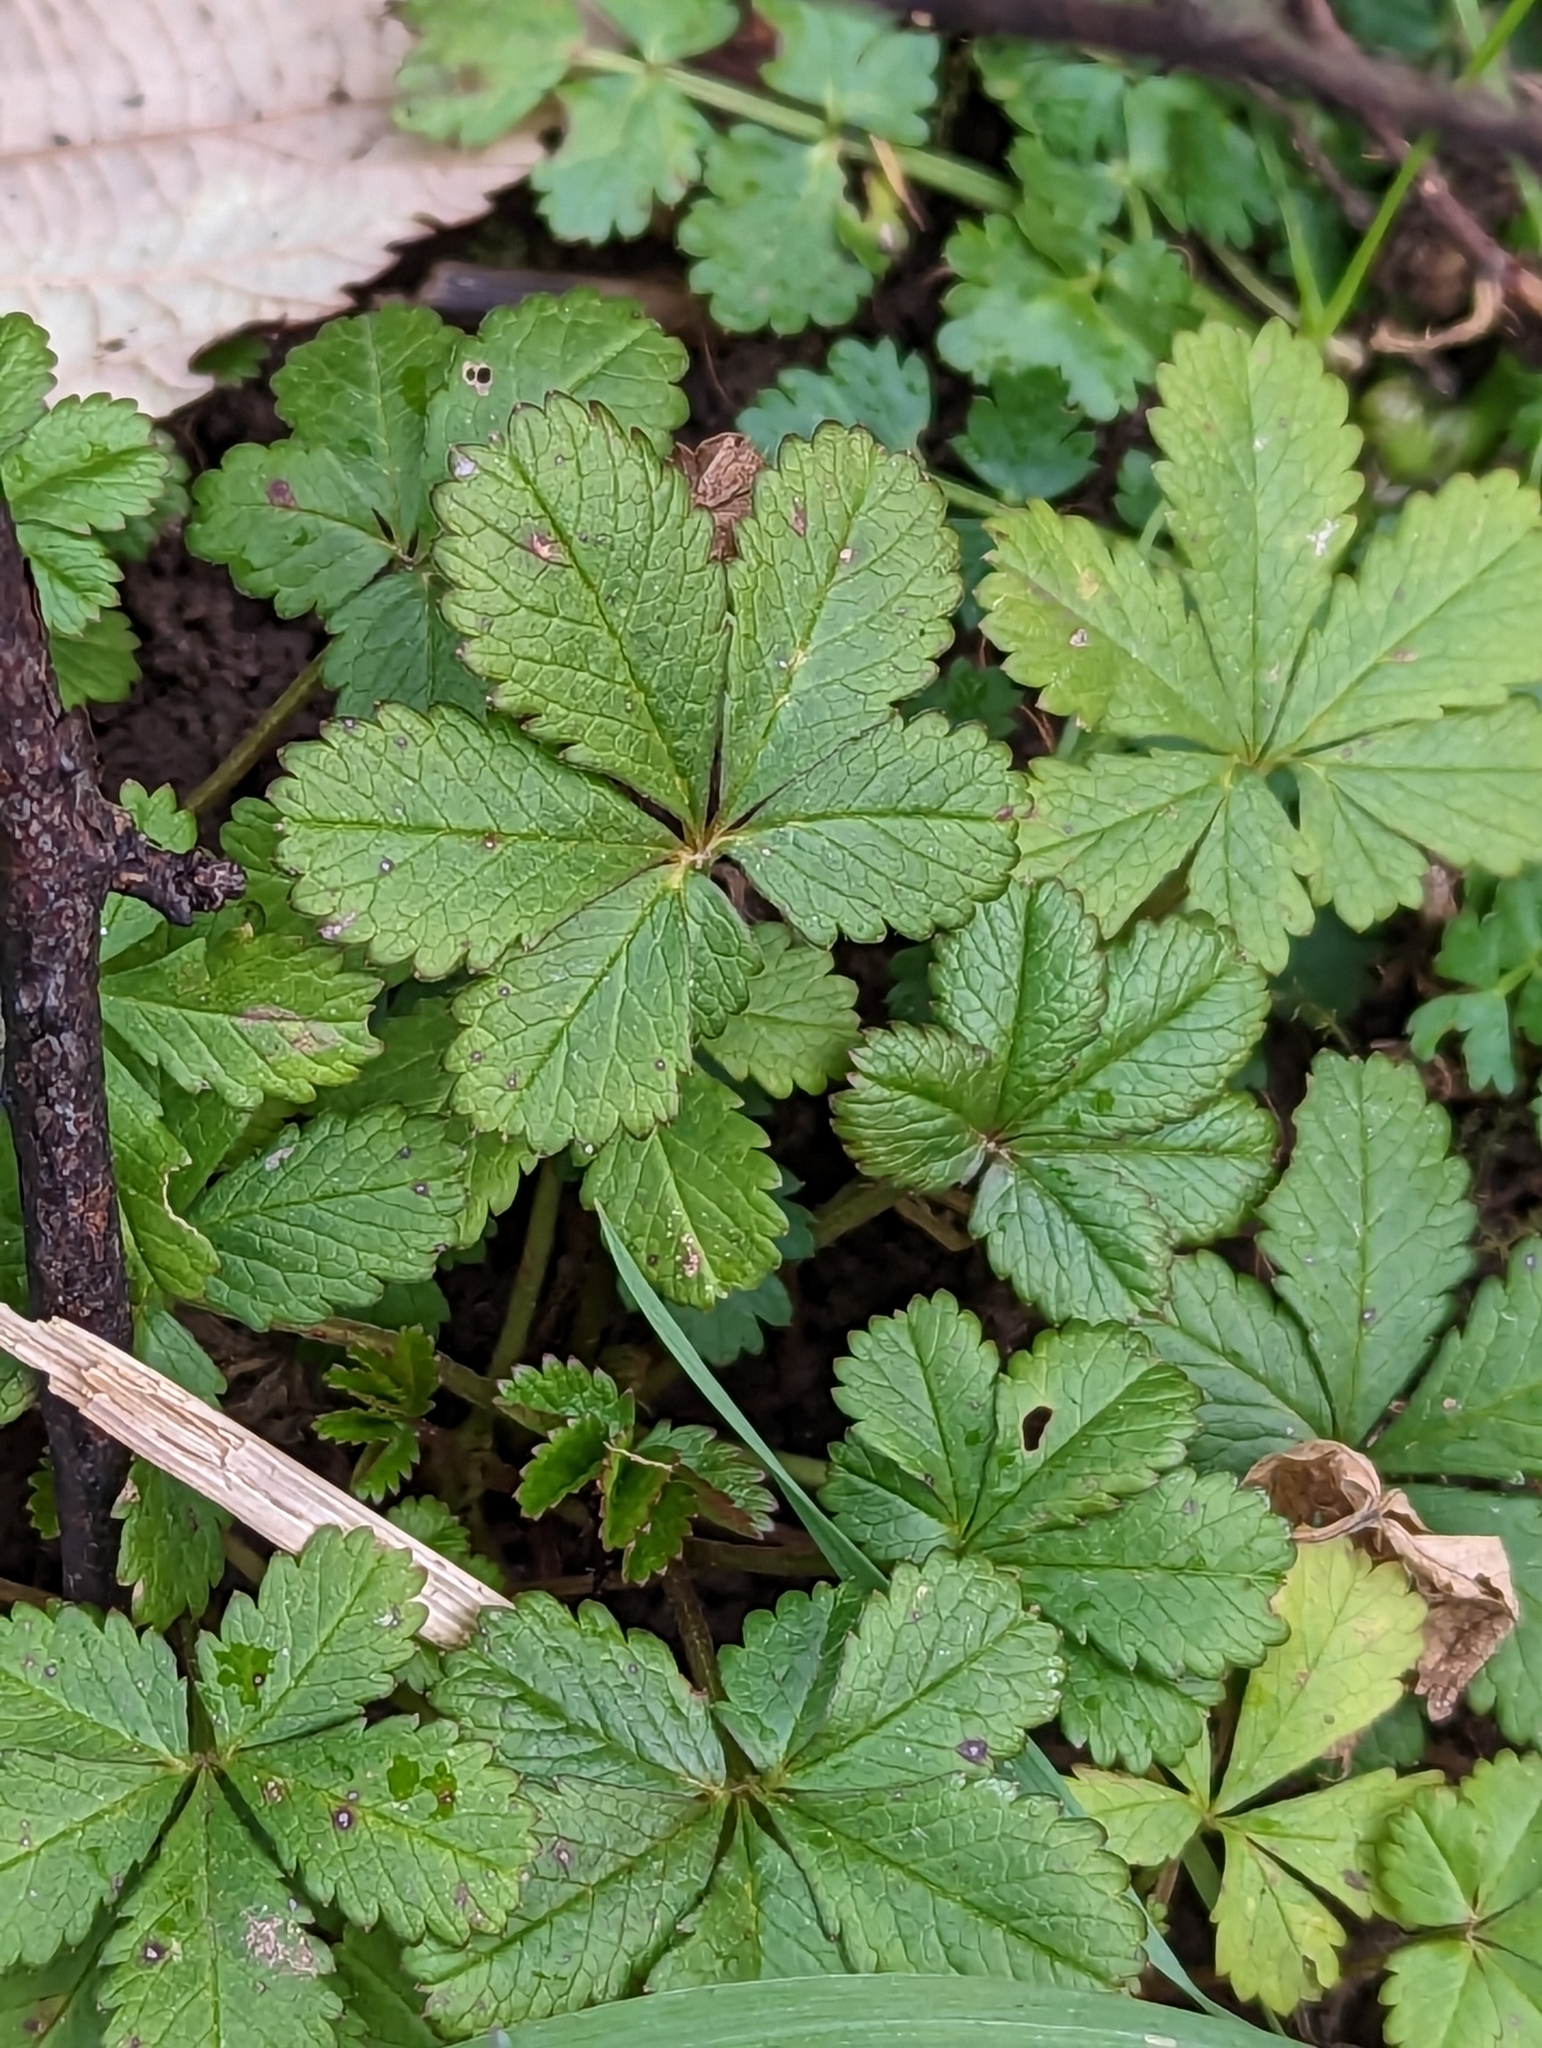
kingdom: Plantae
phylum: Tracheophyta
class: Magnoliopsida
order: Rosales
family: Rosaceae
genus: Potentilla
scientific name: Potentilla reptans
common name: Creeping cinquefoil
